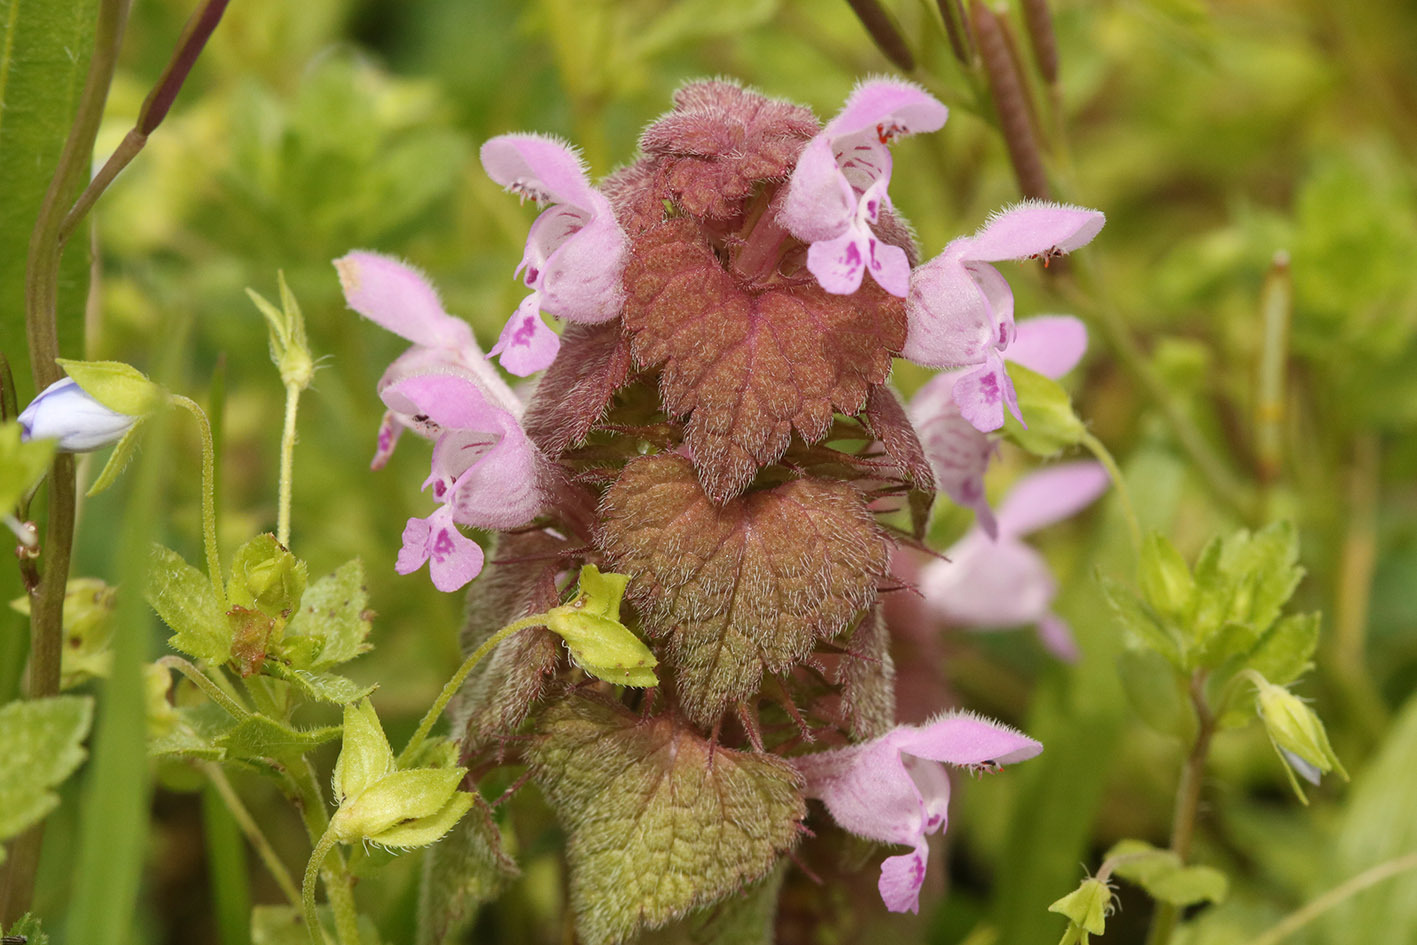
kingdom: Plantae
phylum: Tracheophyta
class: Magnoliopsida
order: Lamiales
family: Lamiaceae
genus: Lamium
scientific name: Lamium purpureum
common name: Red dead-nettle
